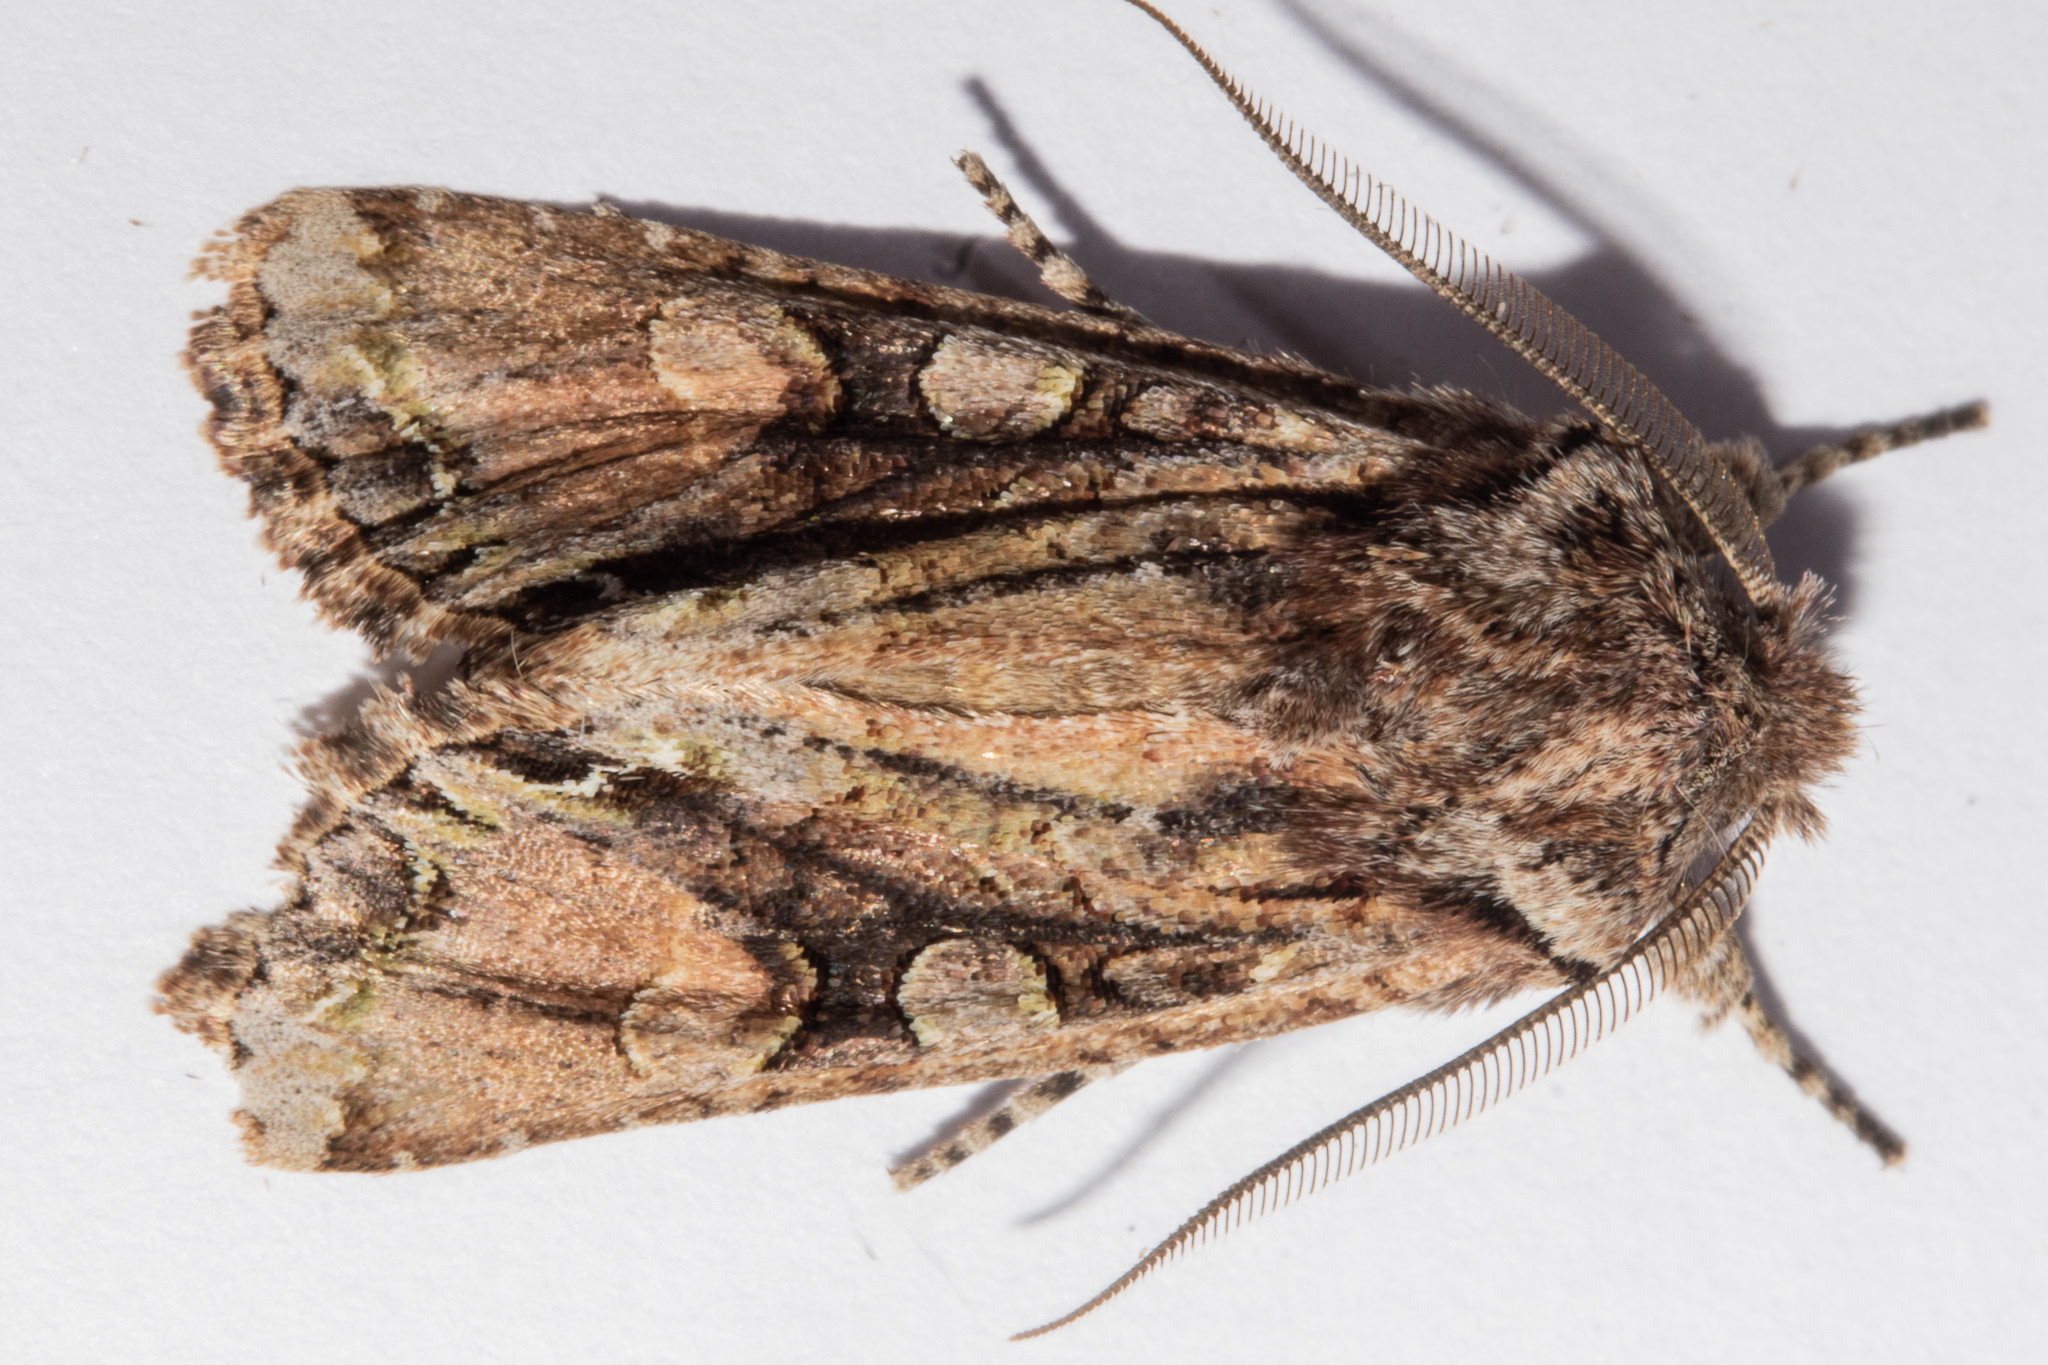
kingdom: Animalia
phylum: Arthropoda
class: Insecta
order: Lepidoptera
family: Noctuidae
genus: Ichneutica
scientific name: Ichneutica
